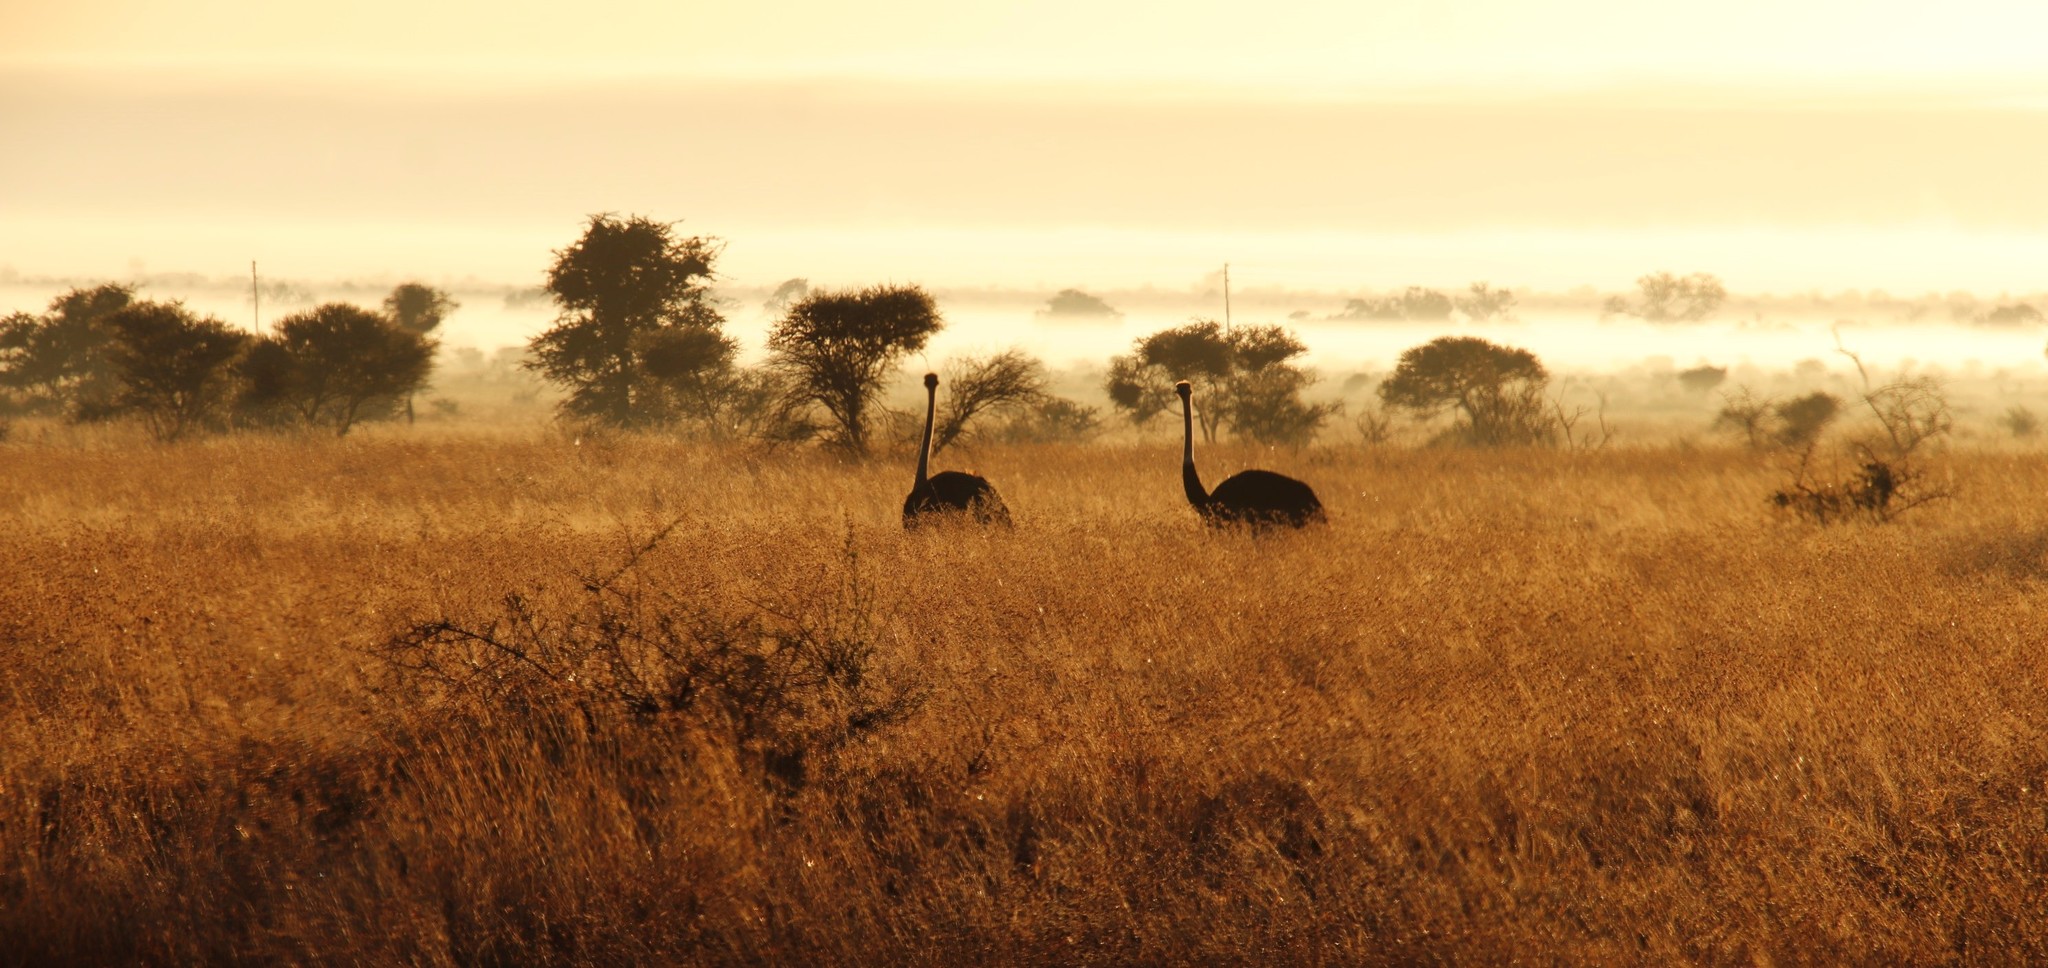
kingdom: Animalia
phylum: Chordata
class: Aves
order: Struthioniformes
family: Struthionidae
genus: Struthio
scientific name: Struthio camelus
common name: Common ostrich
